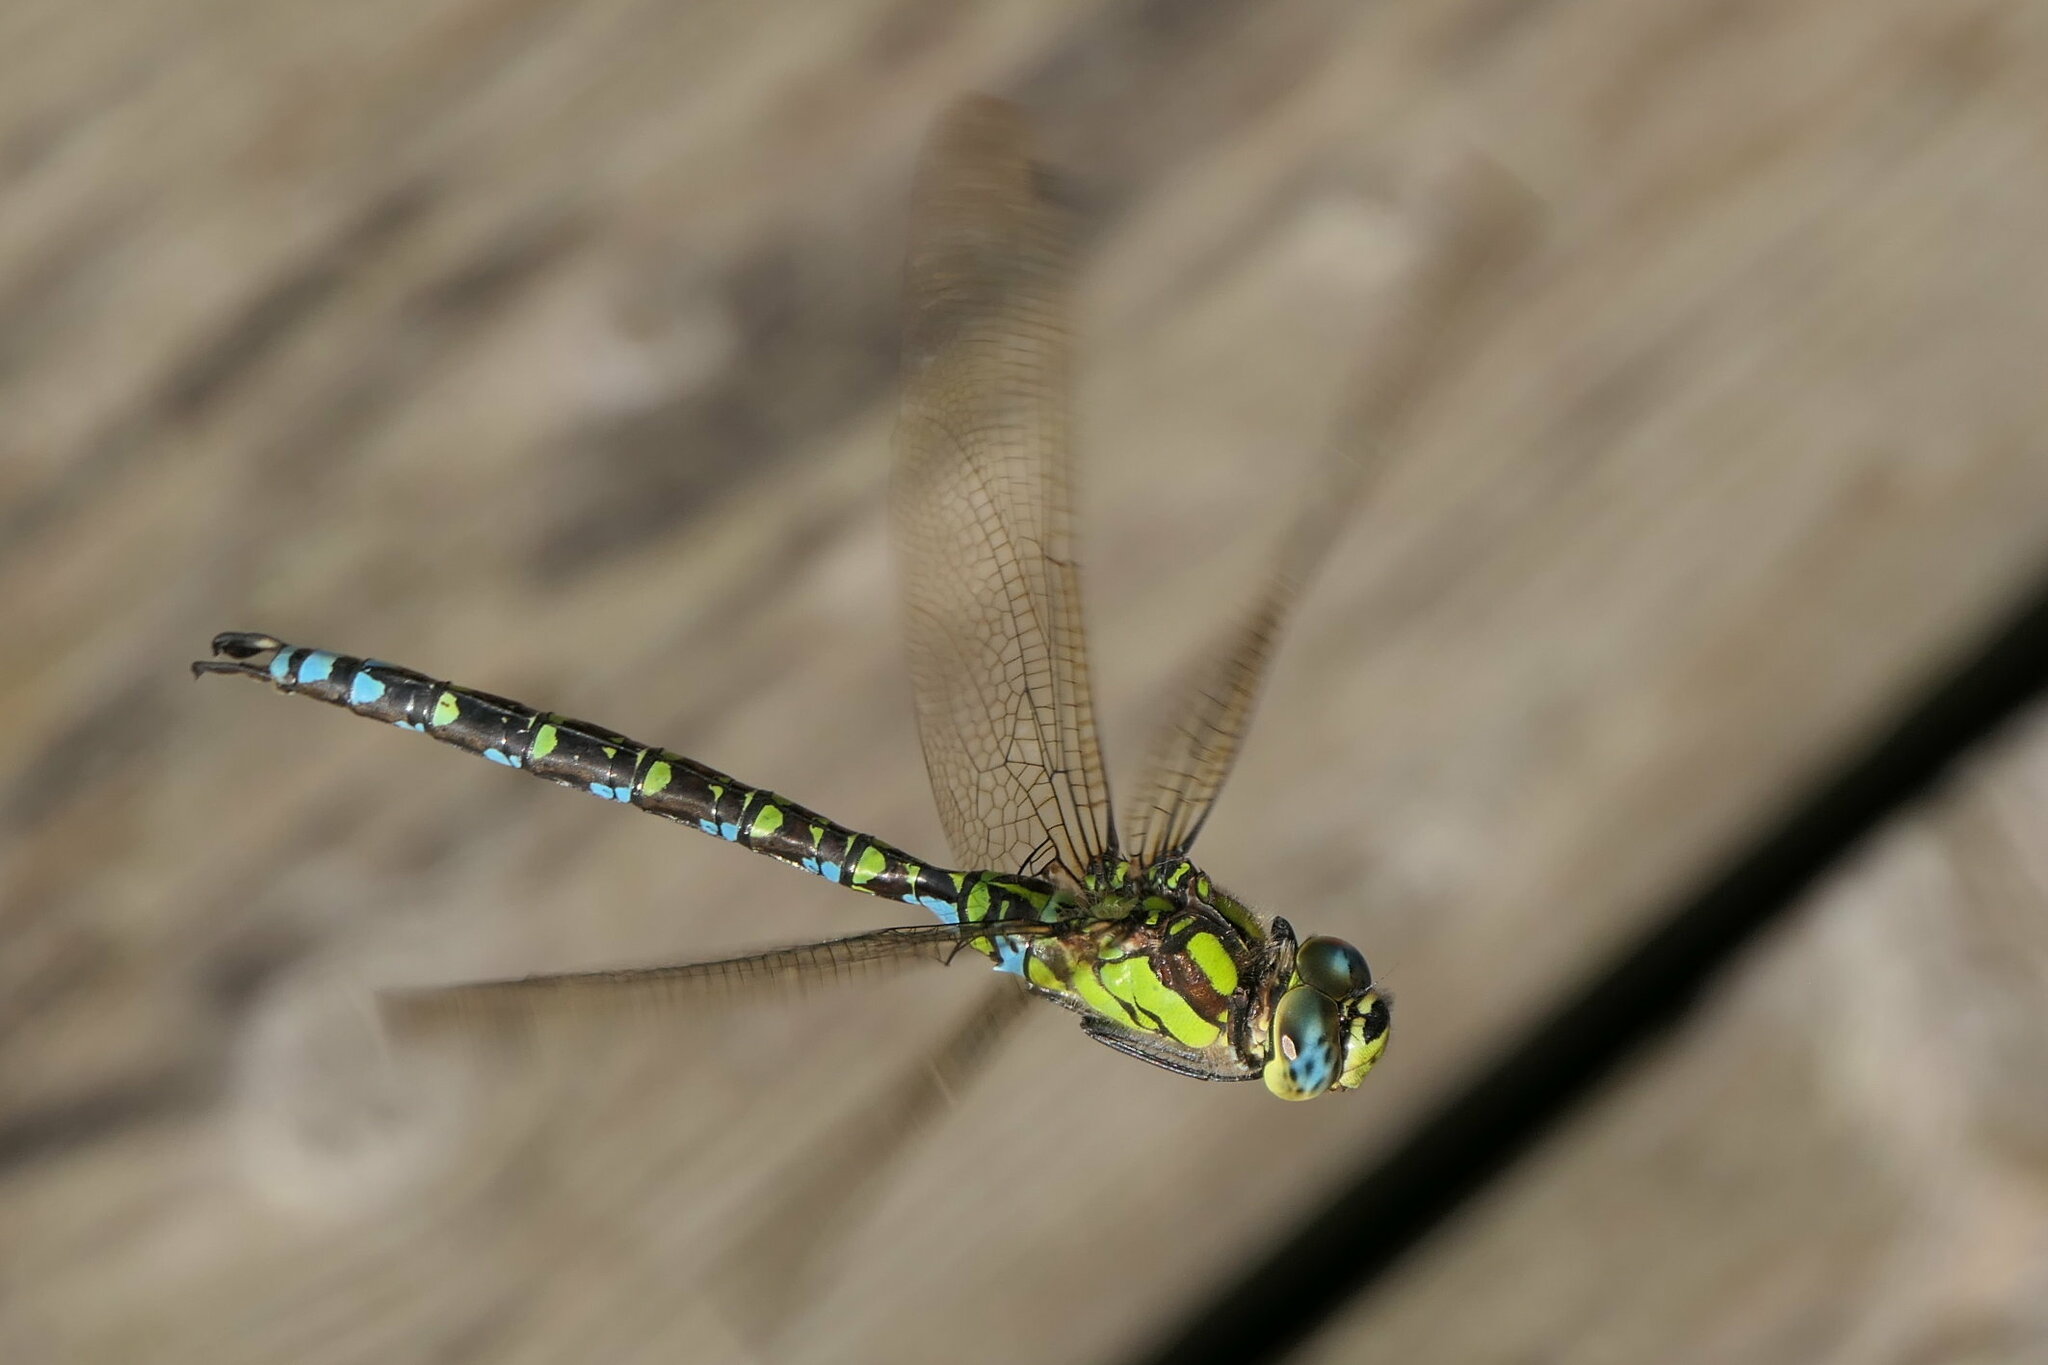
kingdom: Animalia
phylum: Arthropoda
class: Insecta
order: Odonata
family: Aeshnidae
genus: Aeshna
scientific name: Aeshna cyanea
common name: Southern hawker
